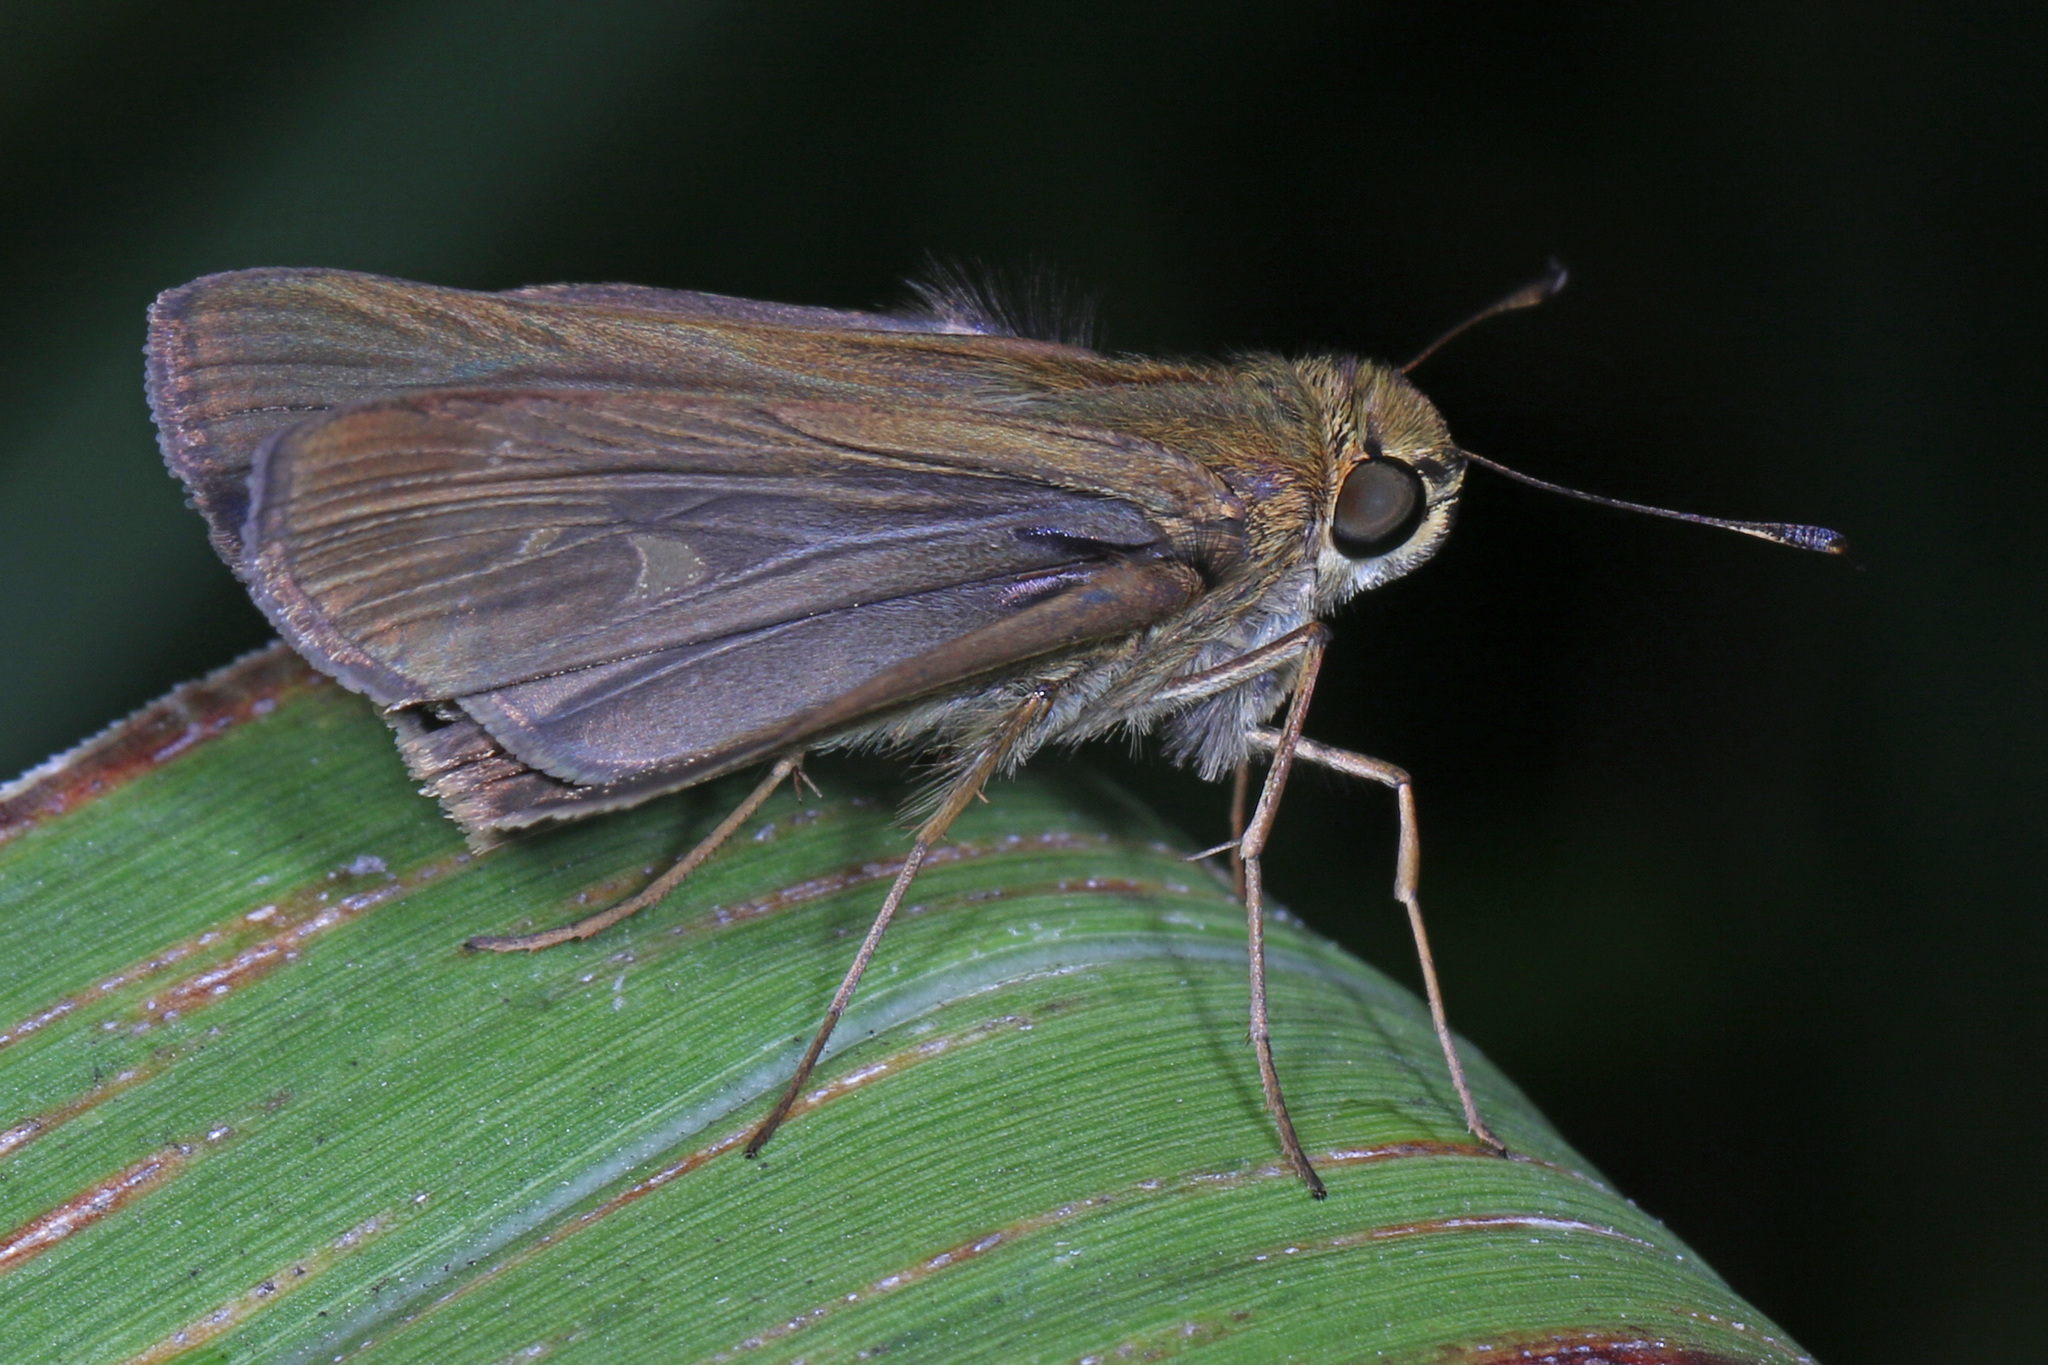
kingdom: Animalia
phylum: Arthropoda
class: Insecta
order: Lepidoptera
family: Hesperiidae
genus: Panoquina
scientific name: Panoquina ocola
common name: Ocola skipper
